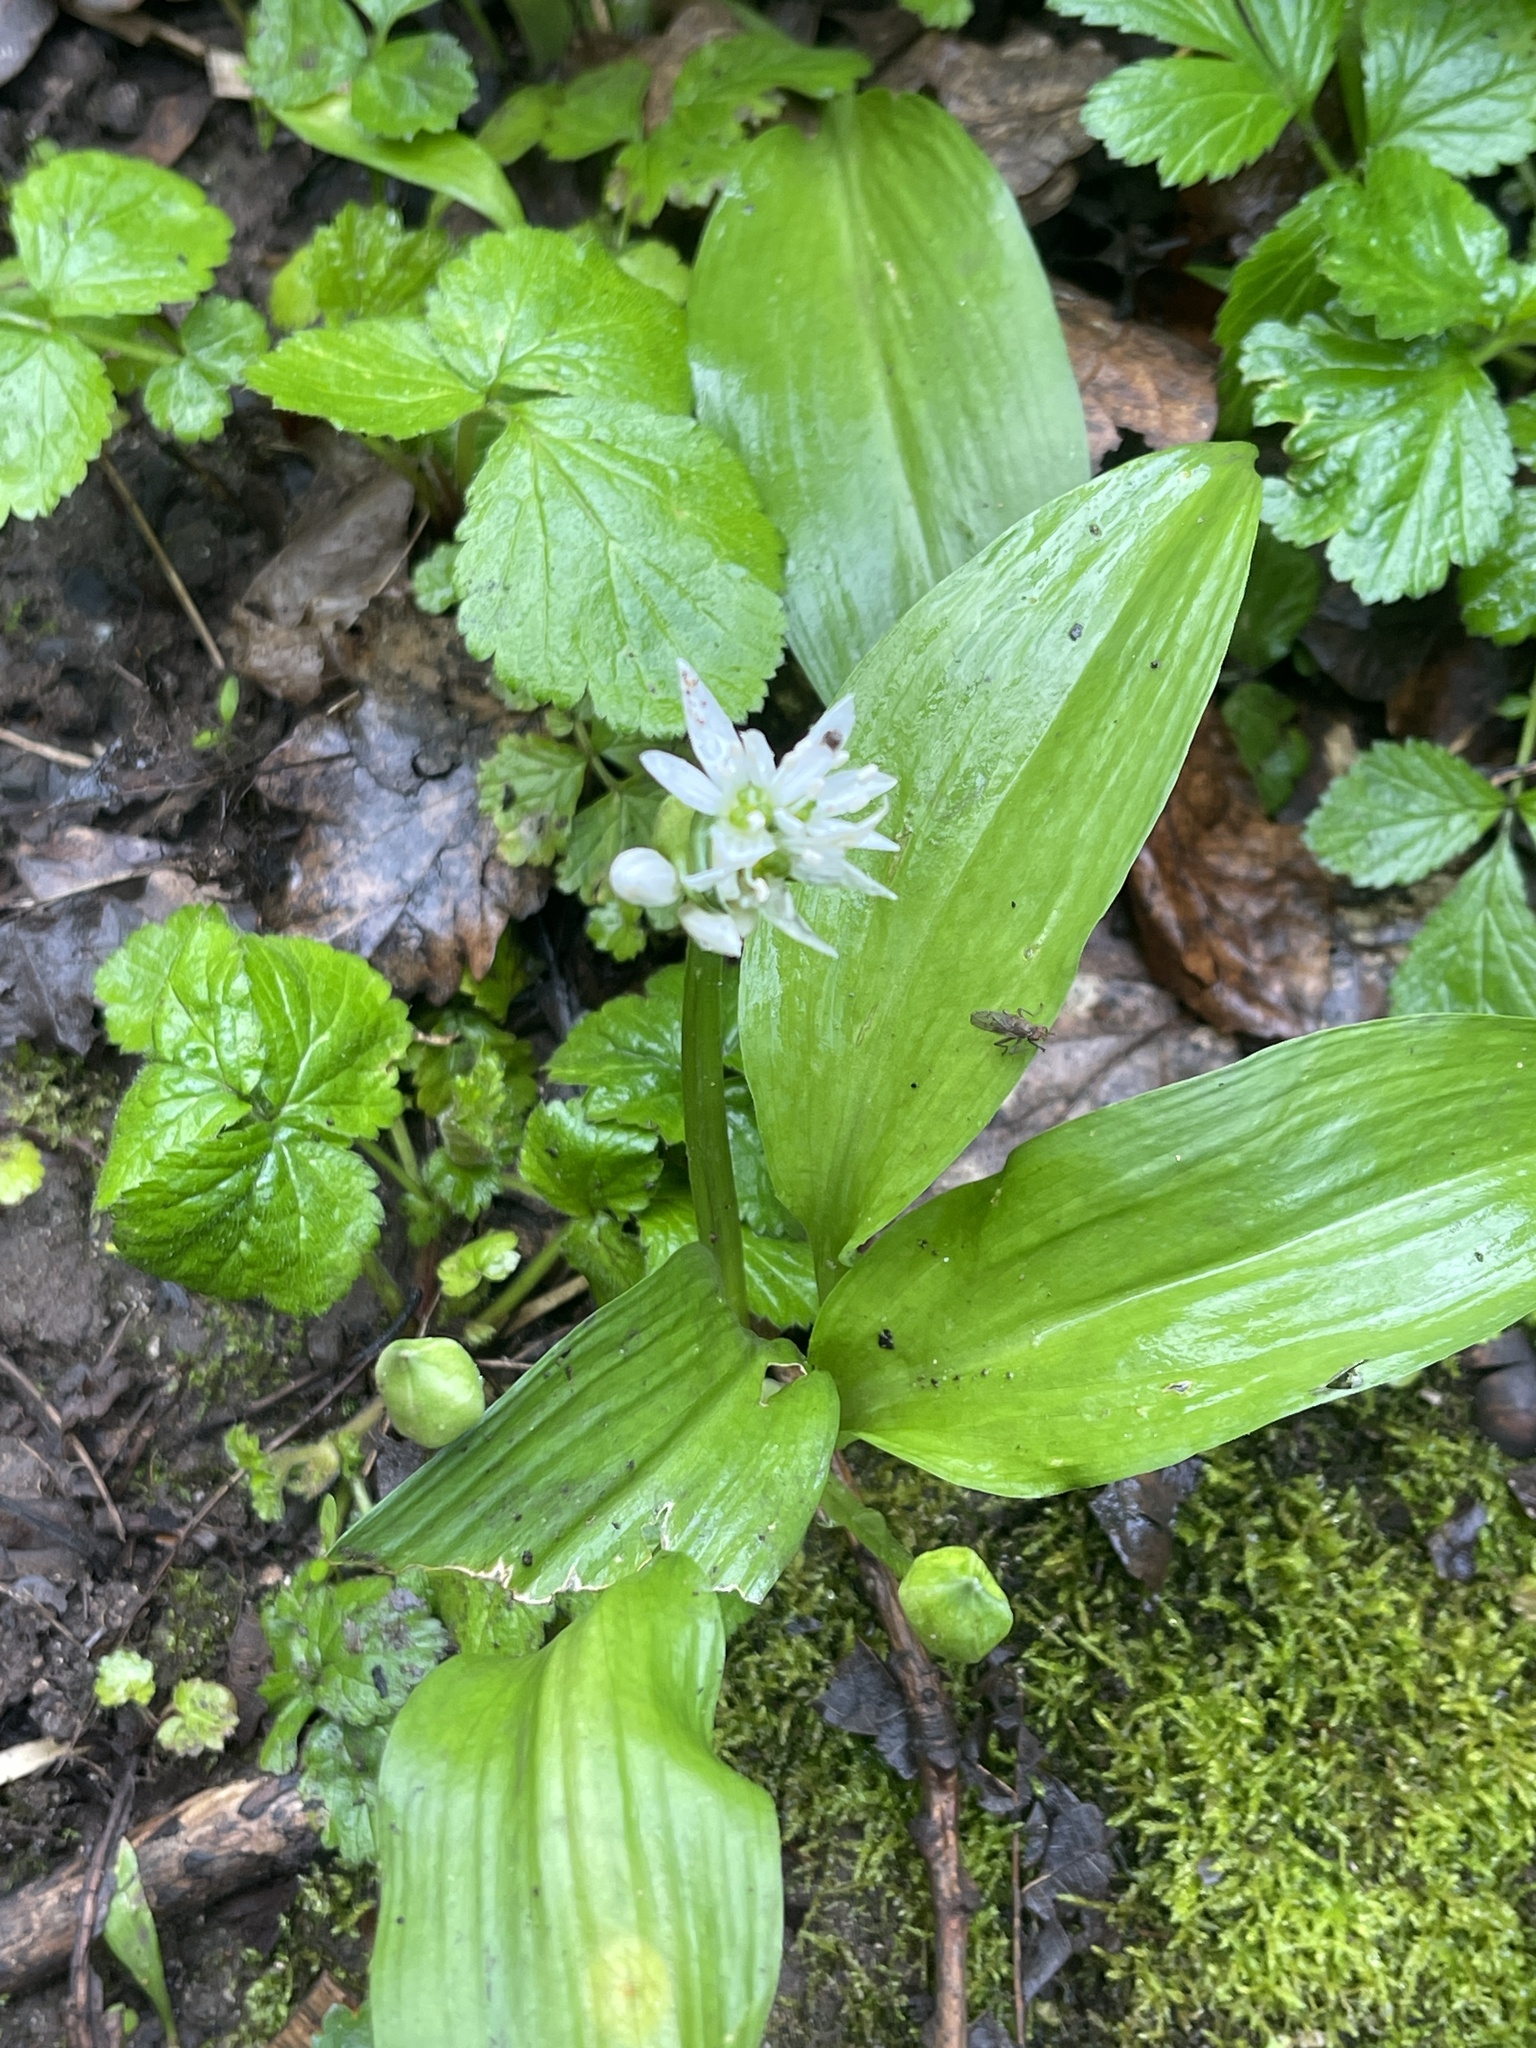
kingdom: Plantae
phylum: Tracheophyta
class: Liliopsida
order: Asparagales
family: Amaryllidaceae
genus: Allium
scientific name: Allium ursinum
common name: Ramsons
